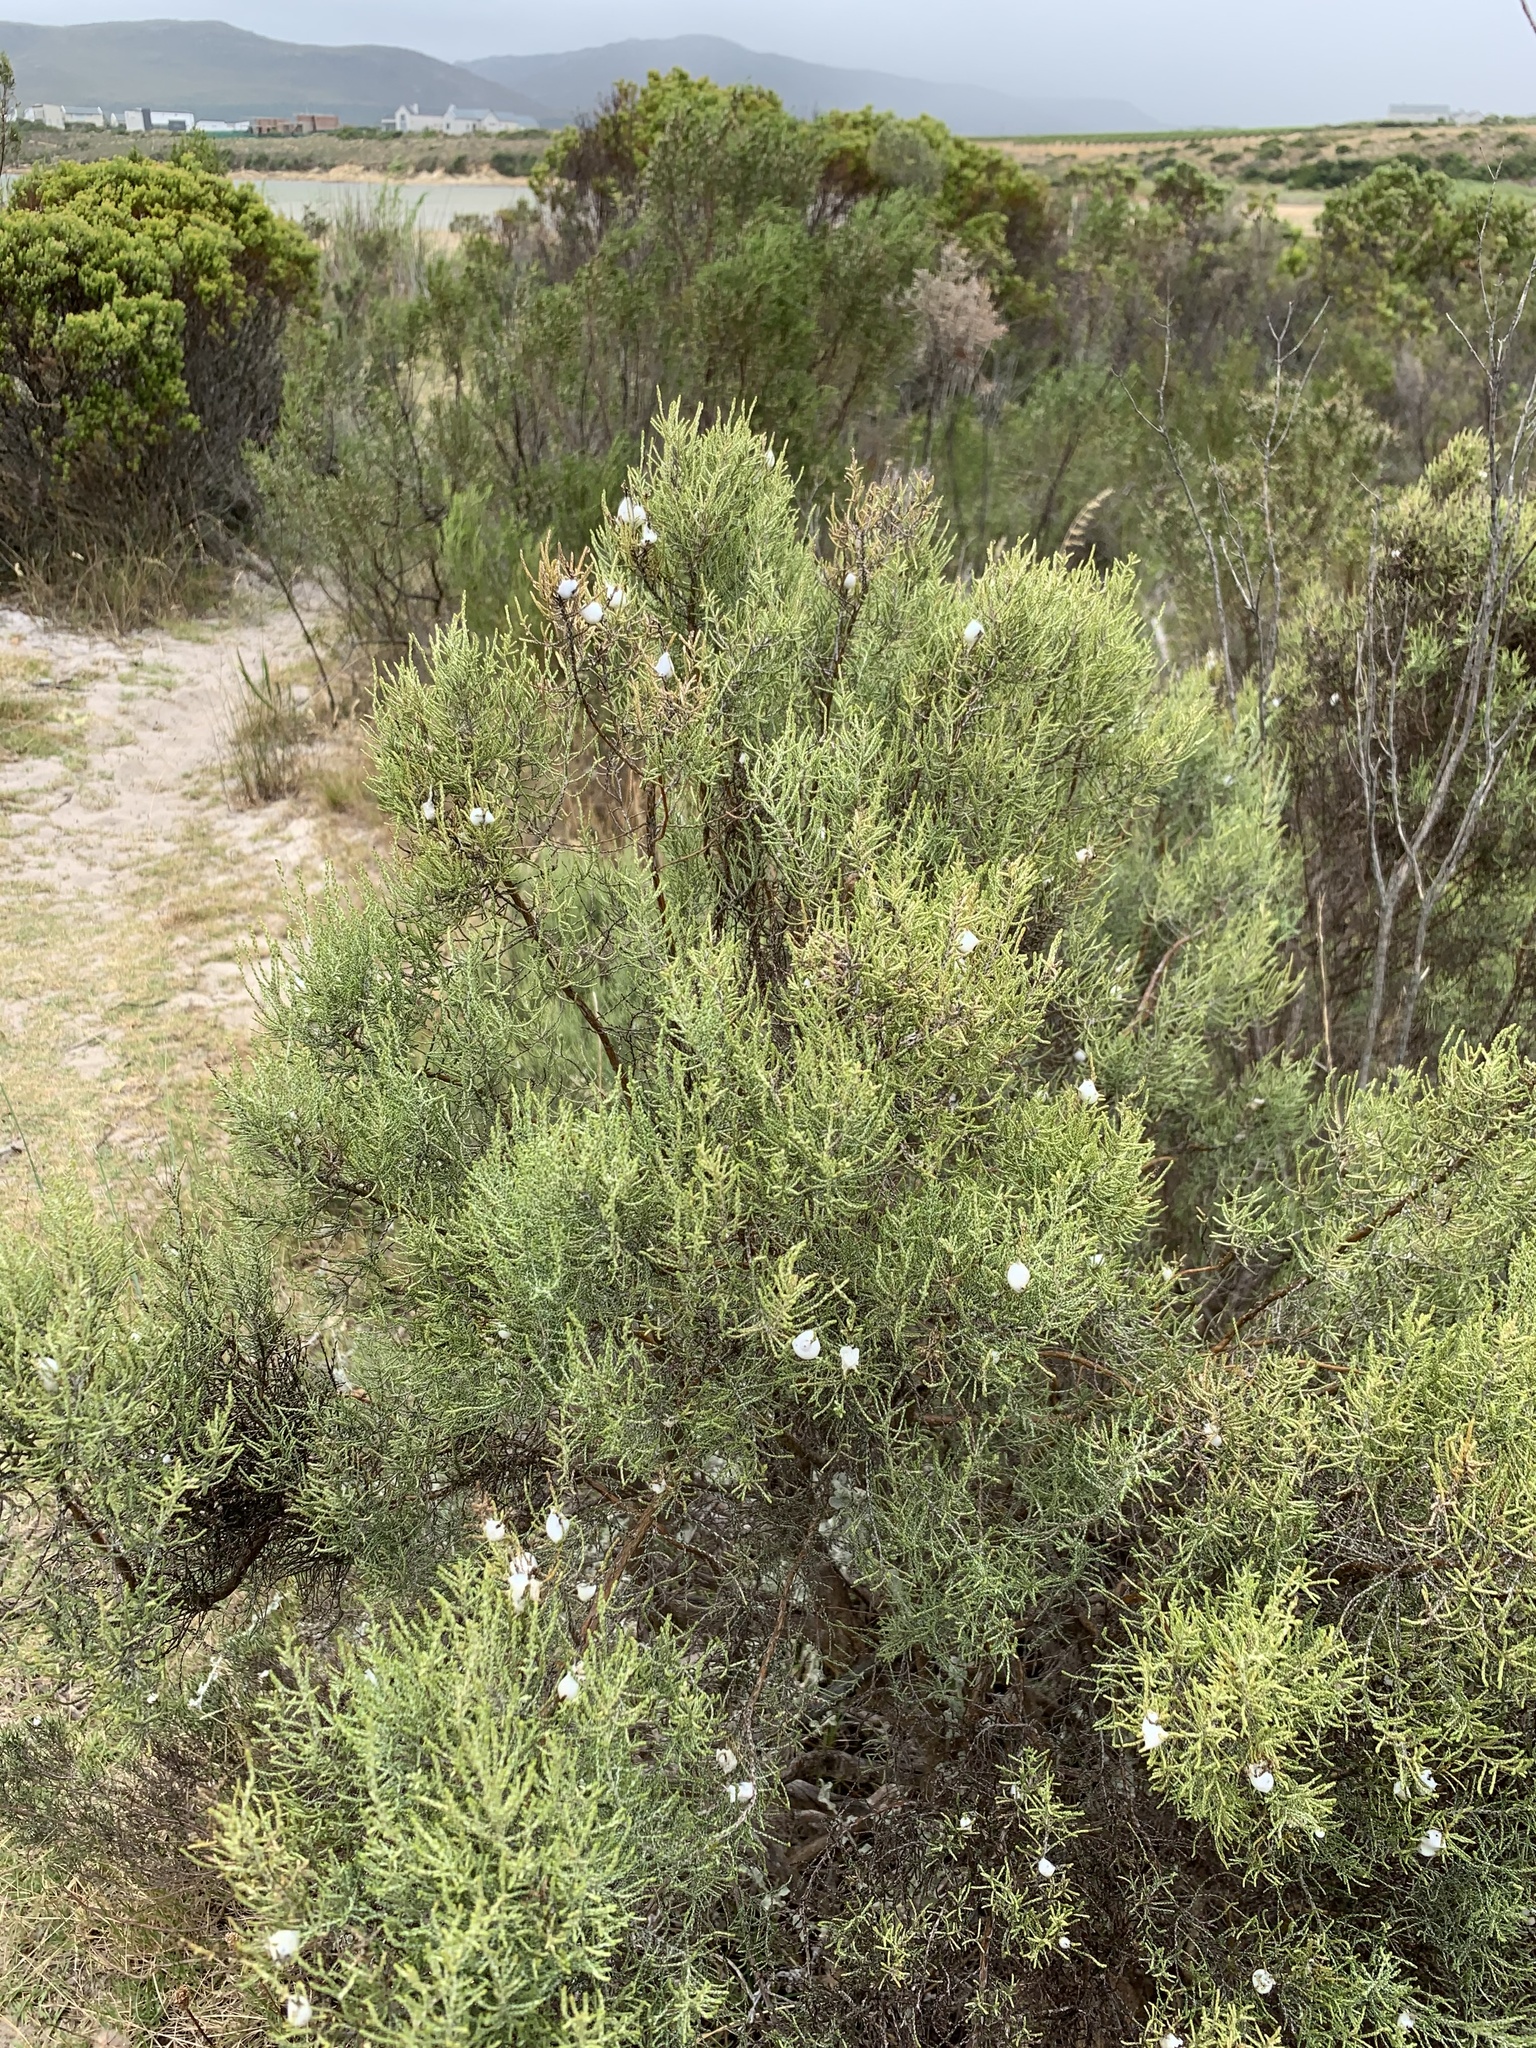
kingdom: Plantae
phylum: Tracheophyta
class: Magnoliopsida
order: Asterales
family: Asteraceae
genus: Dicerothamnus
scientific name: Dicerothamnus rhinocerotis
